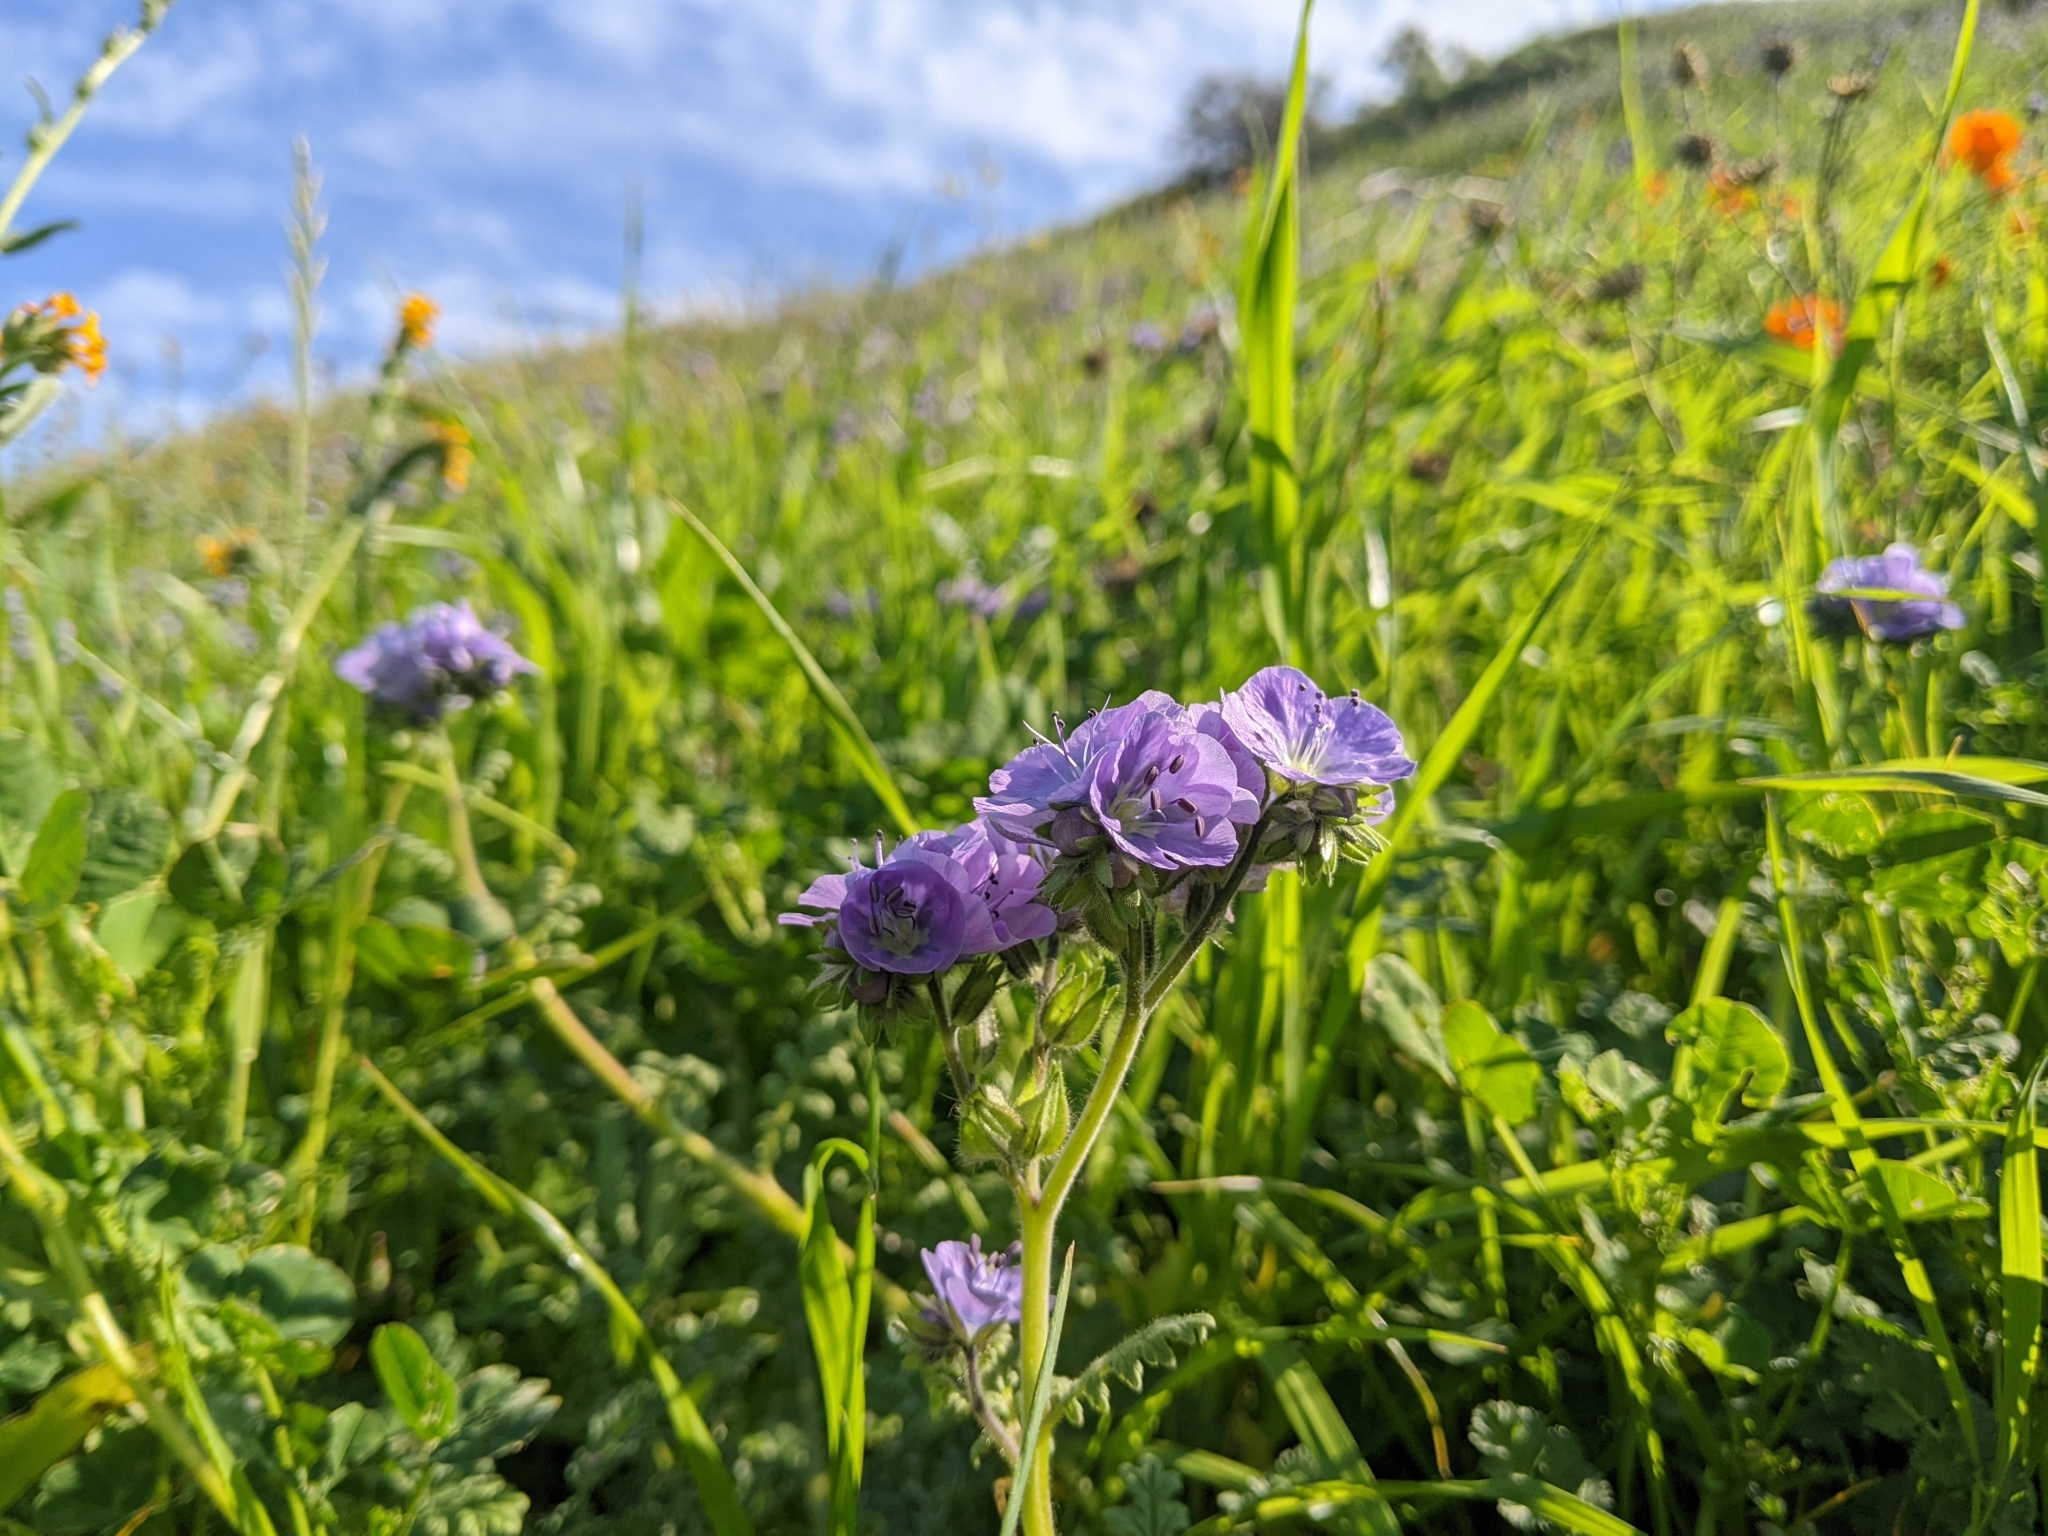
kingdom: Plantae
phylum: Tracheophyta
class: Magnoliopsida
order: Boraginales
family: Hydrophyllaceae
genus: Phacelia
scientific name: Phacelia ciliata
